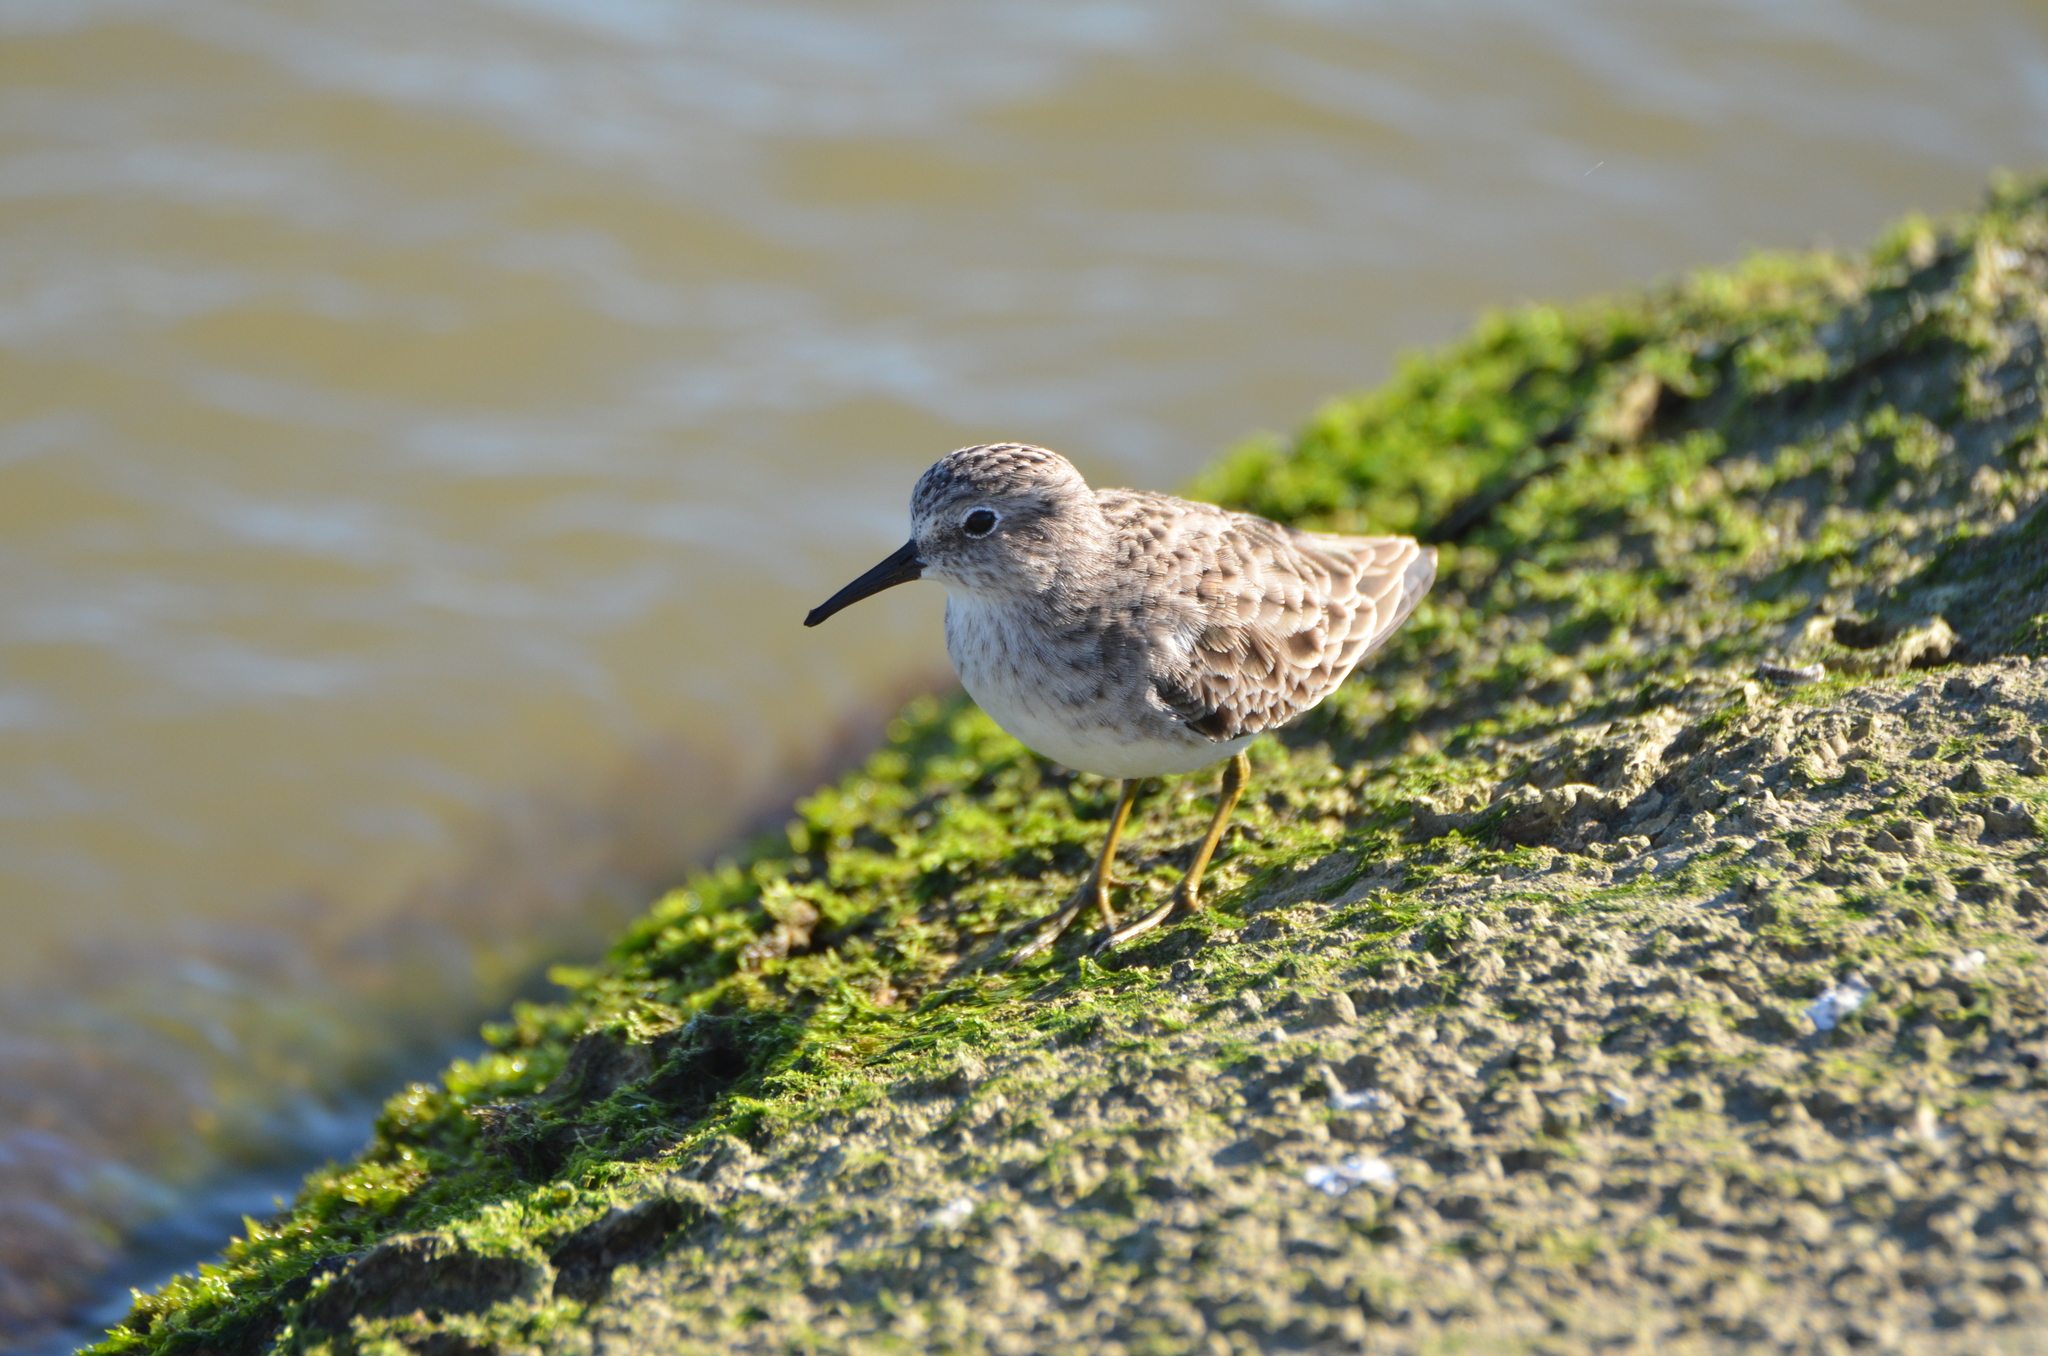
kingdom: Animalia
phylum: Chordata
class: Aves
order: Charadriiformes
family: Scolopacidae
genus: Calidris
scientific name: Calidris minutilla
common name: Least sandpiper
